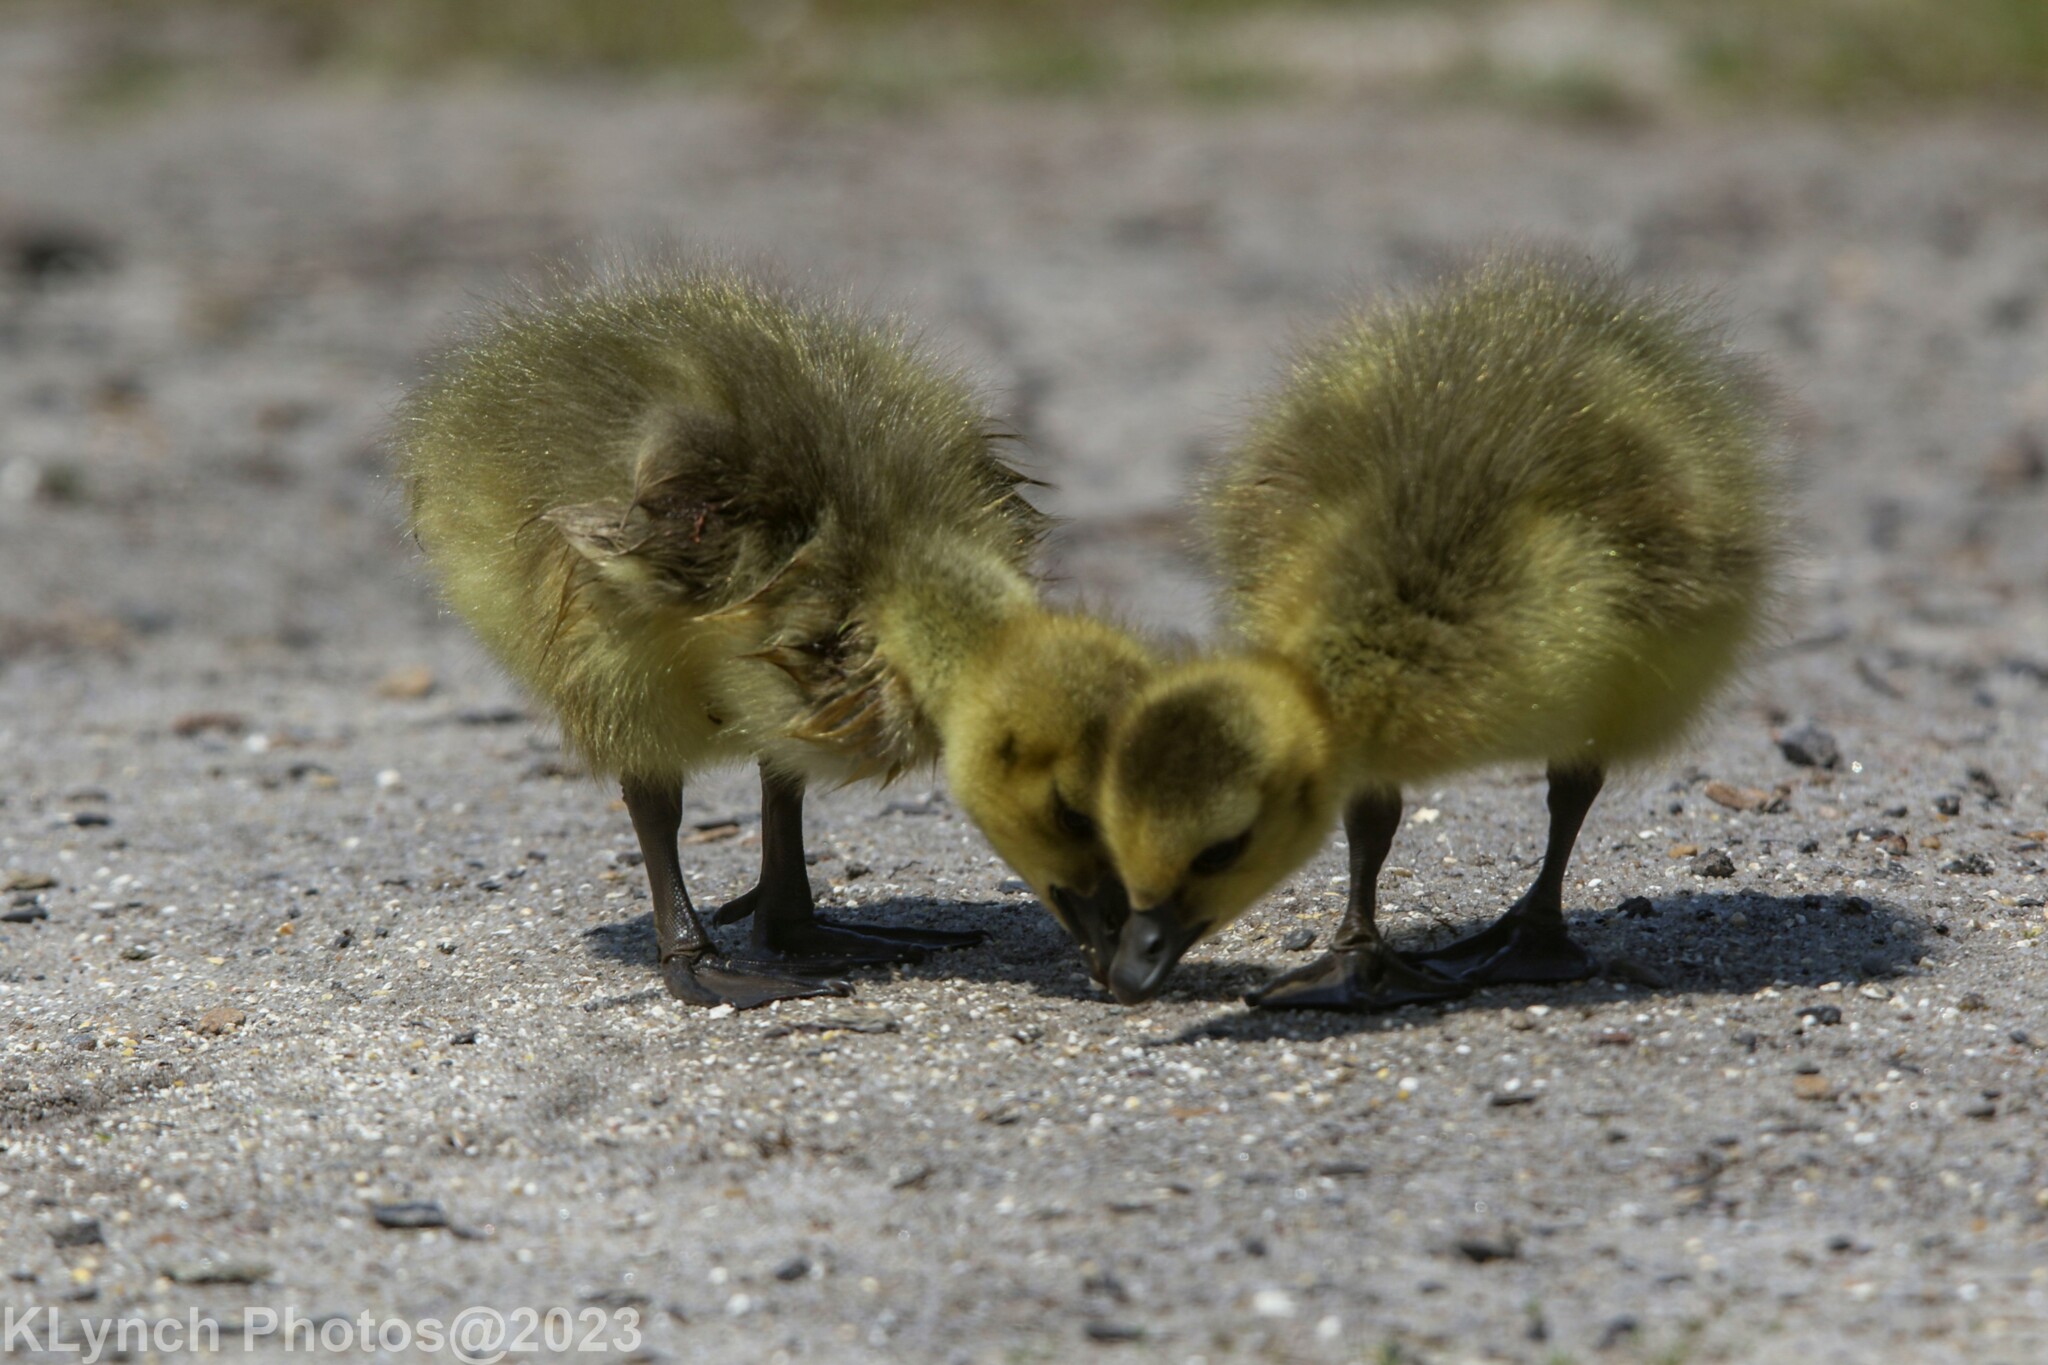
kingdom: Animalia
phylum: Chordata
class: Aves
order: Anseriformes
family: Anatidae
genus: Branta
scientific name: Branta canadensis
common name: Canada goose
